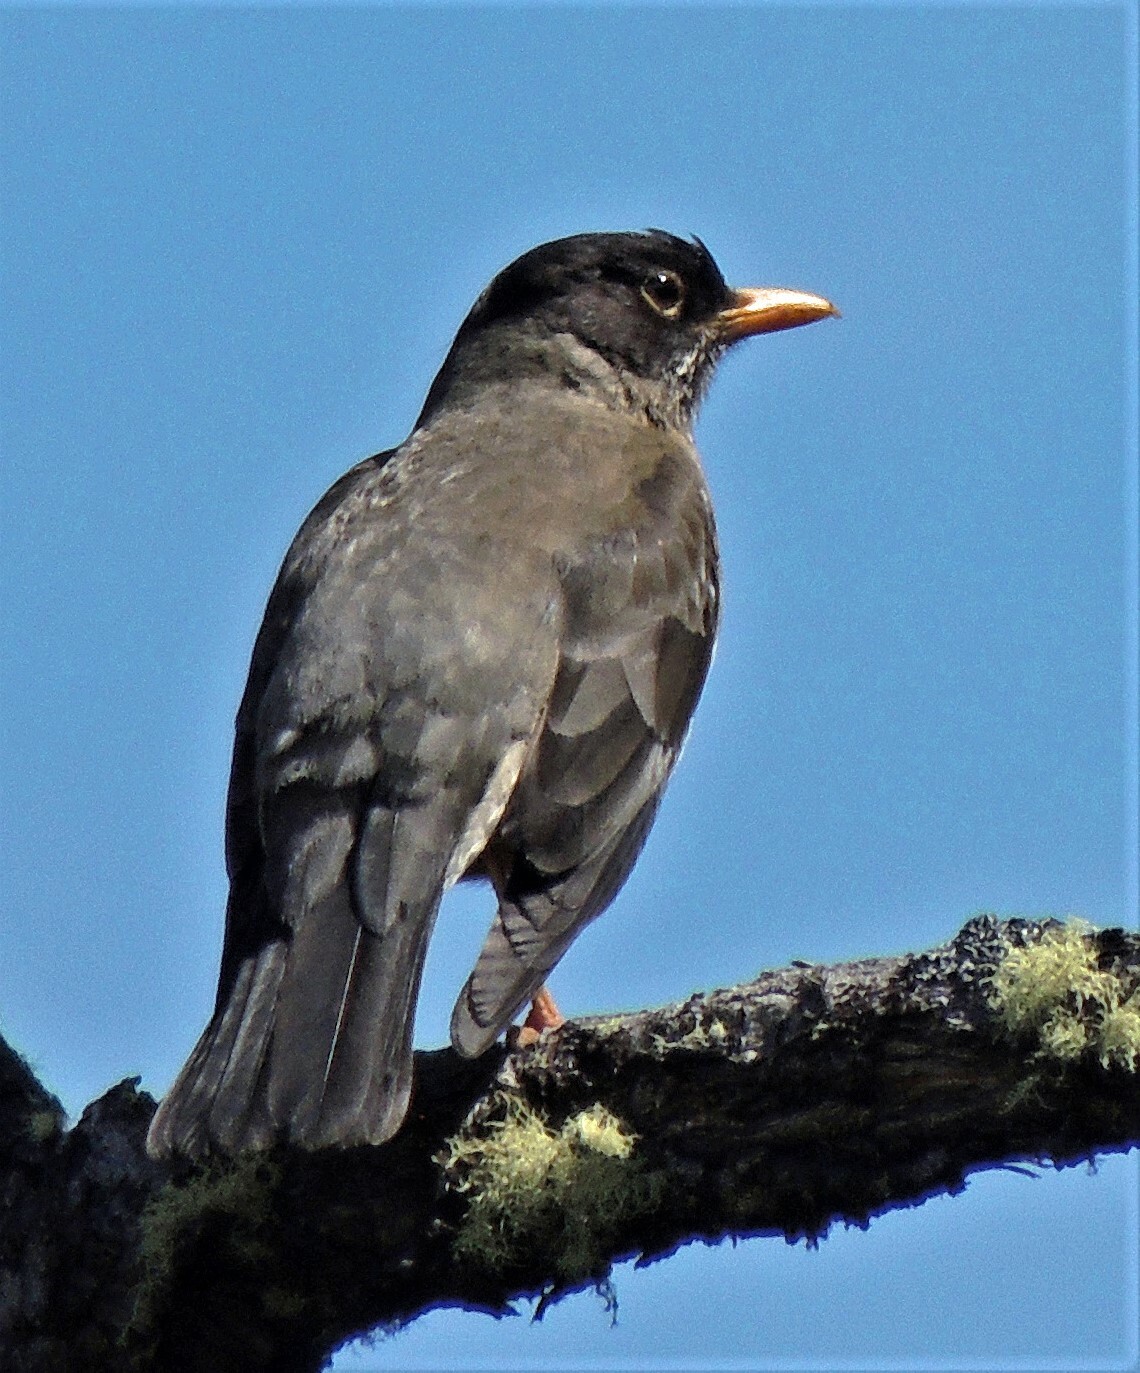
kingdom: Animalia
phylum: Chordata
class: Aves
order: Passeriformes
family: Turdidae
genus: Turdus
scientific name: Turdus falcklandii
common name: Austral thrush
